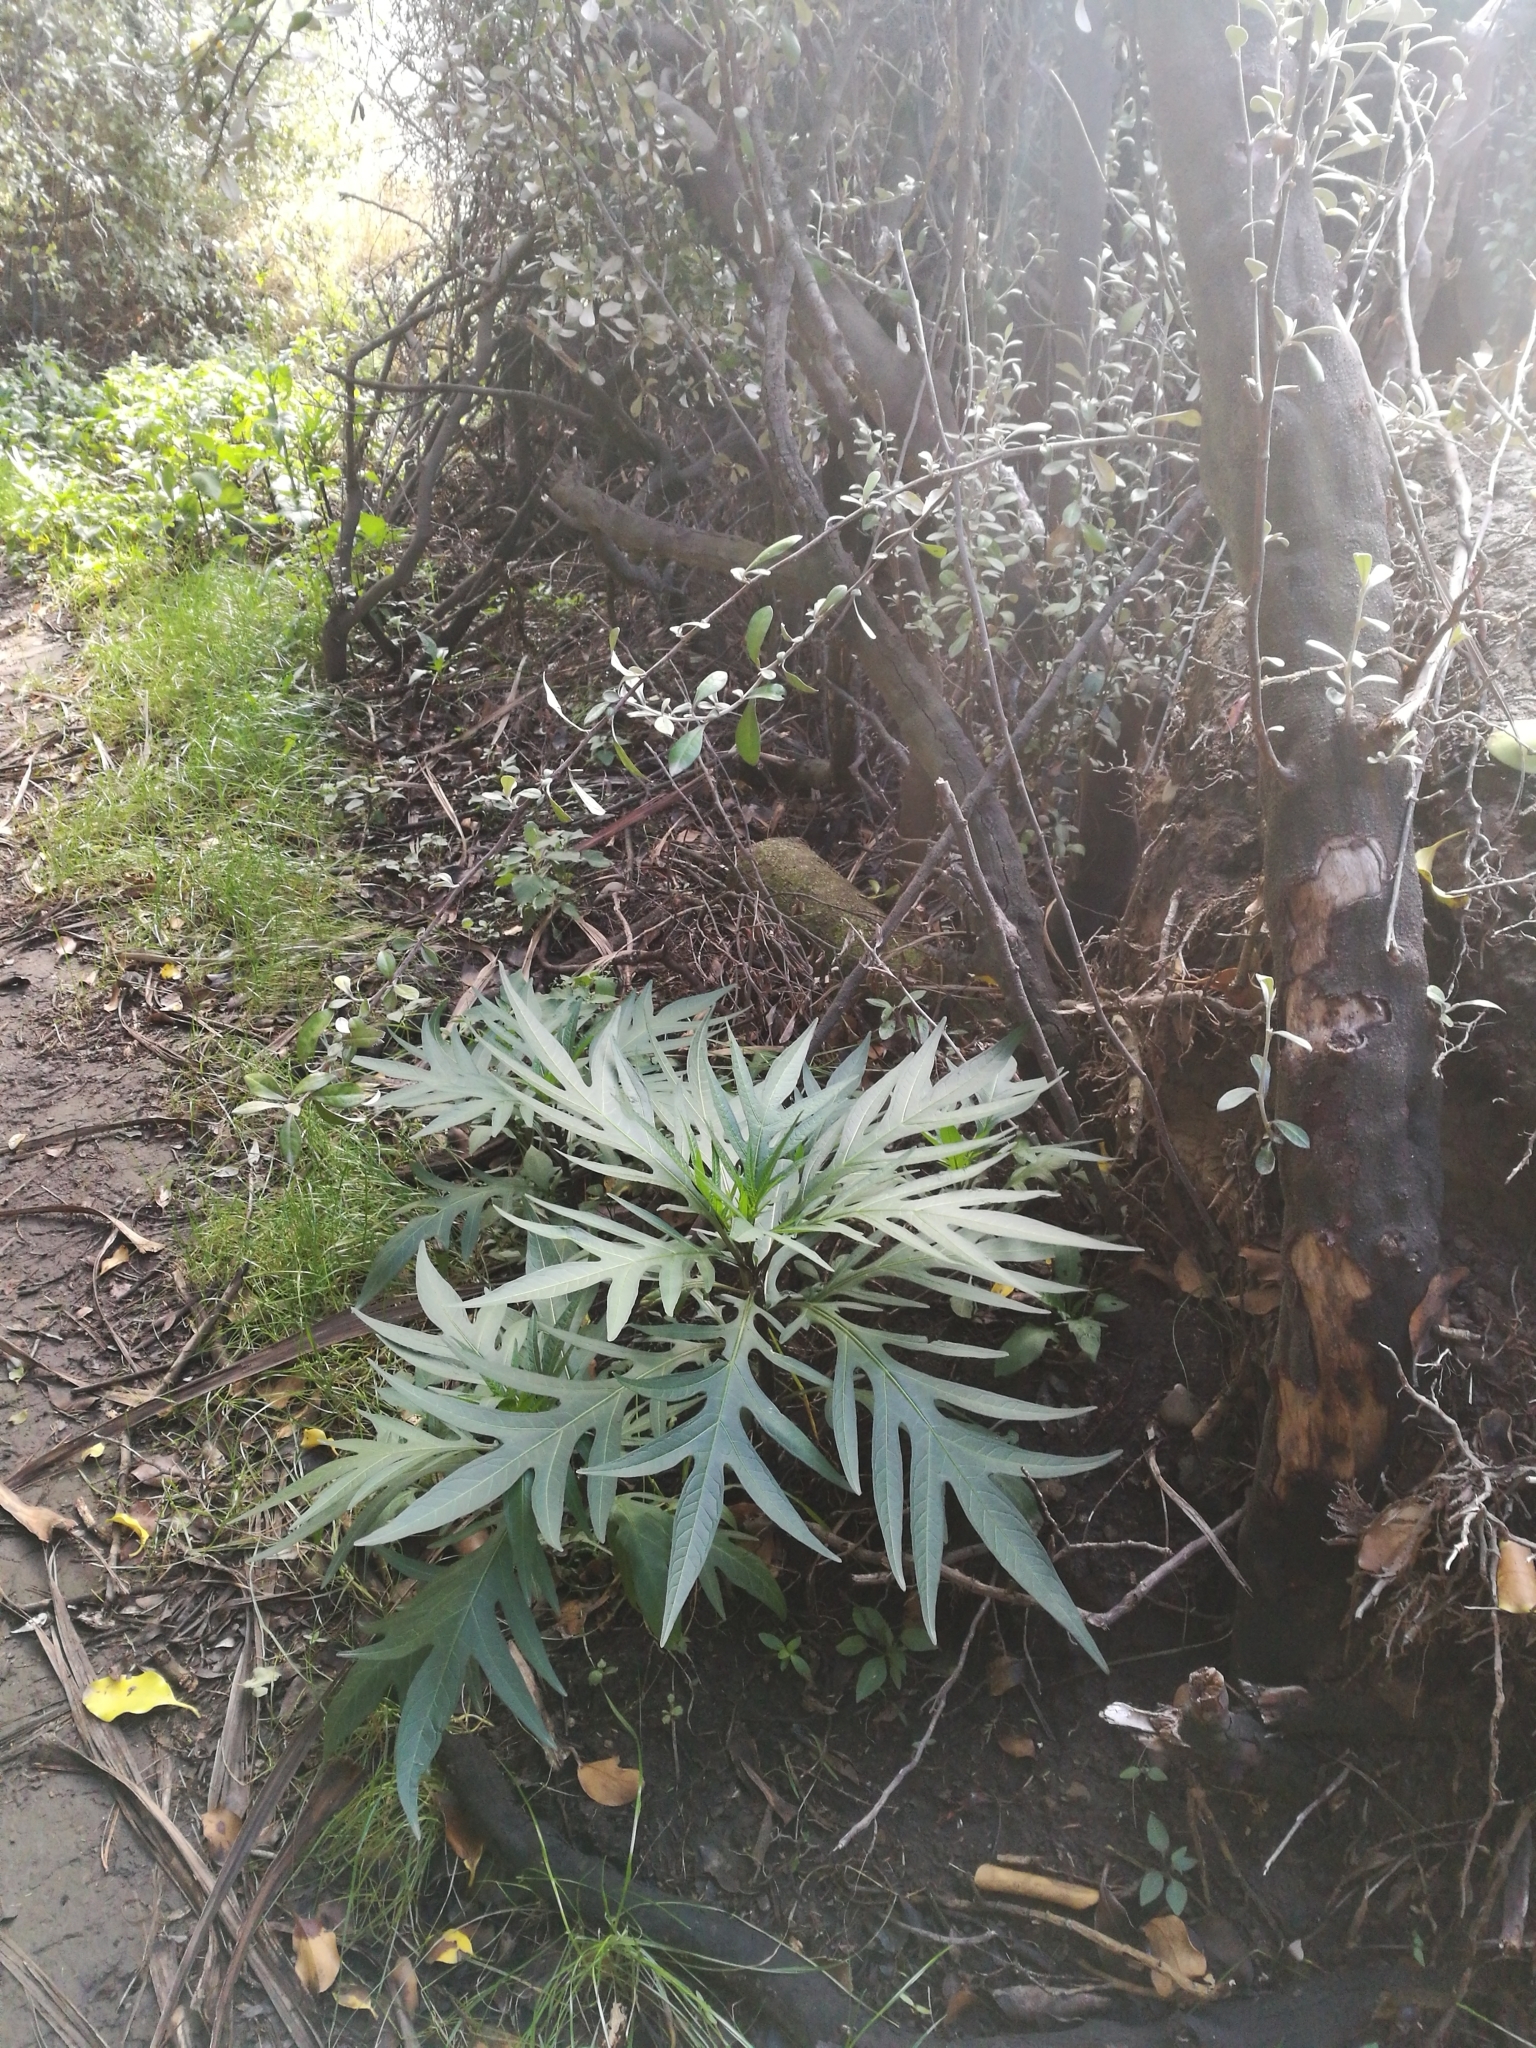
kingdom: Plantae
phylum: Tracheophyta
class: Magnoliopsida
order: Solanales
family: Solanaceae
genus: Solanum
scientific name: Solanum
